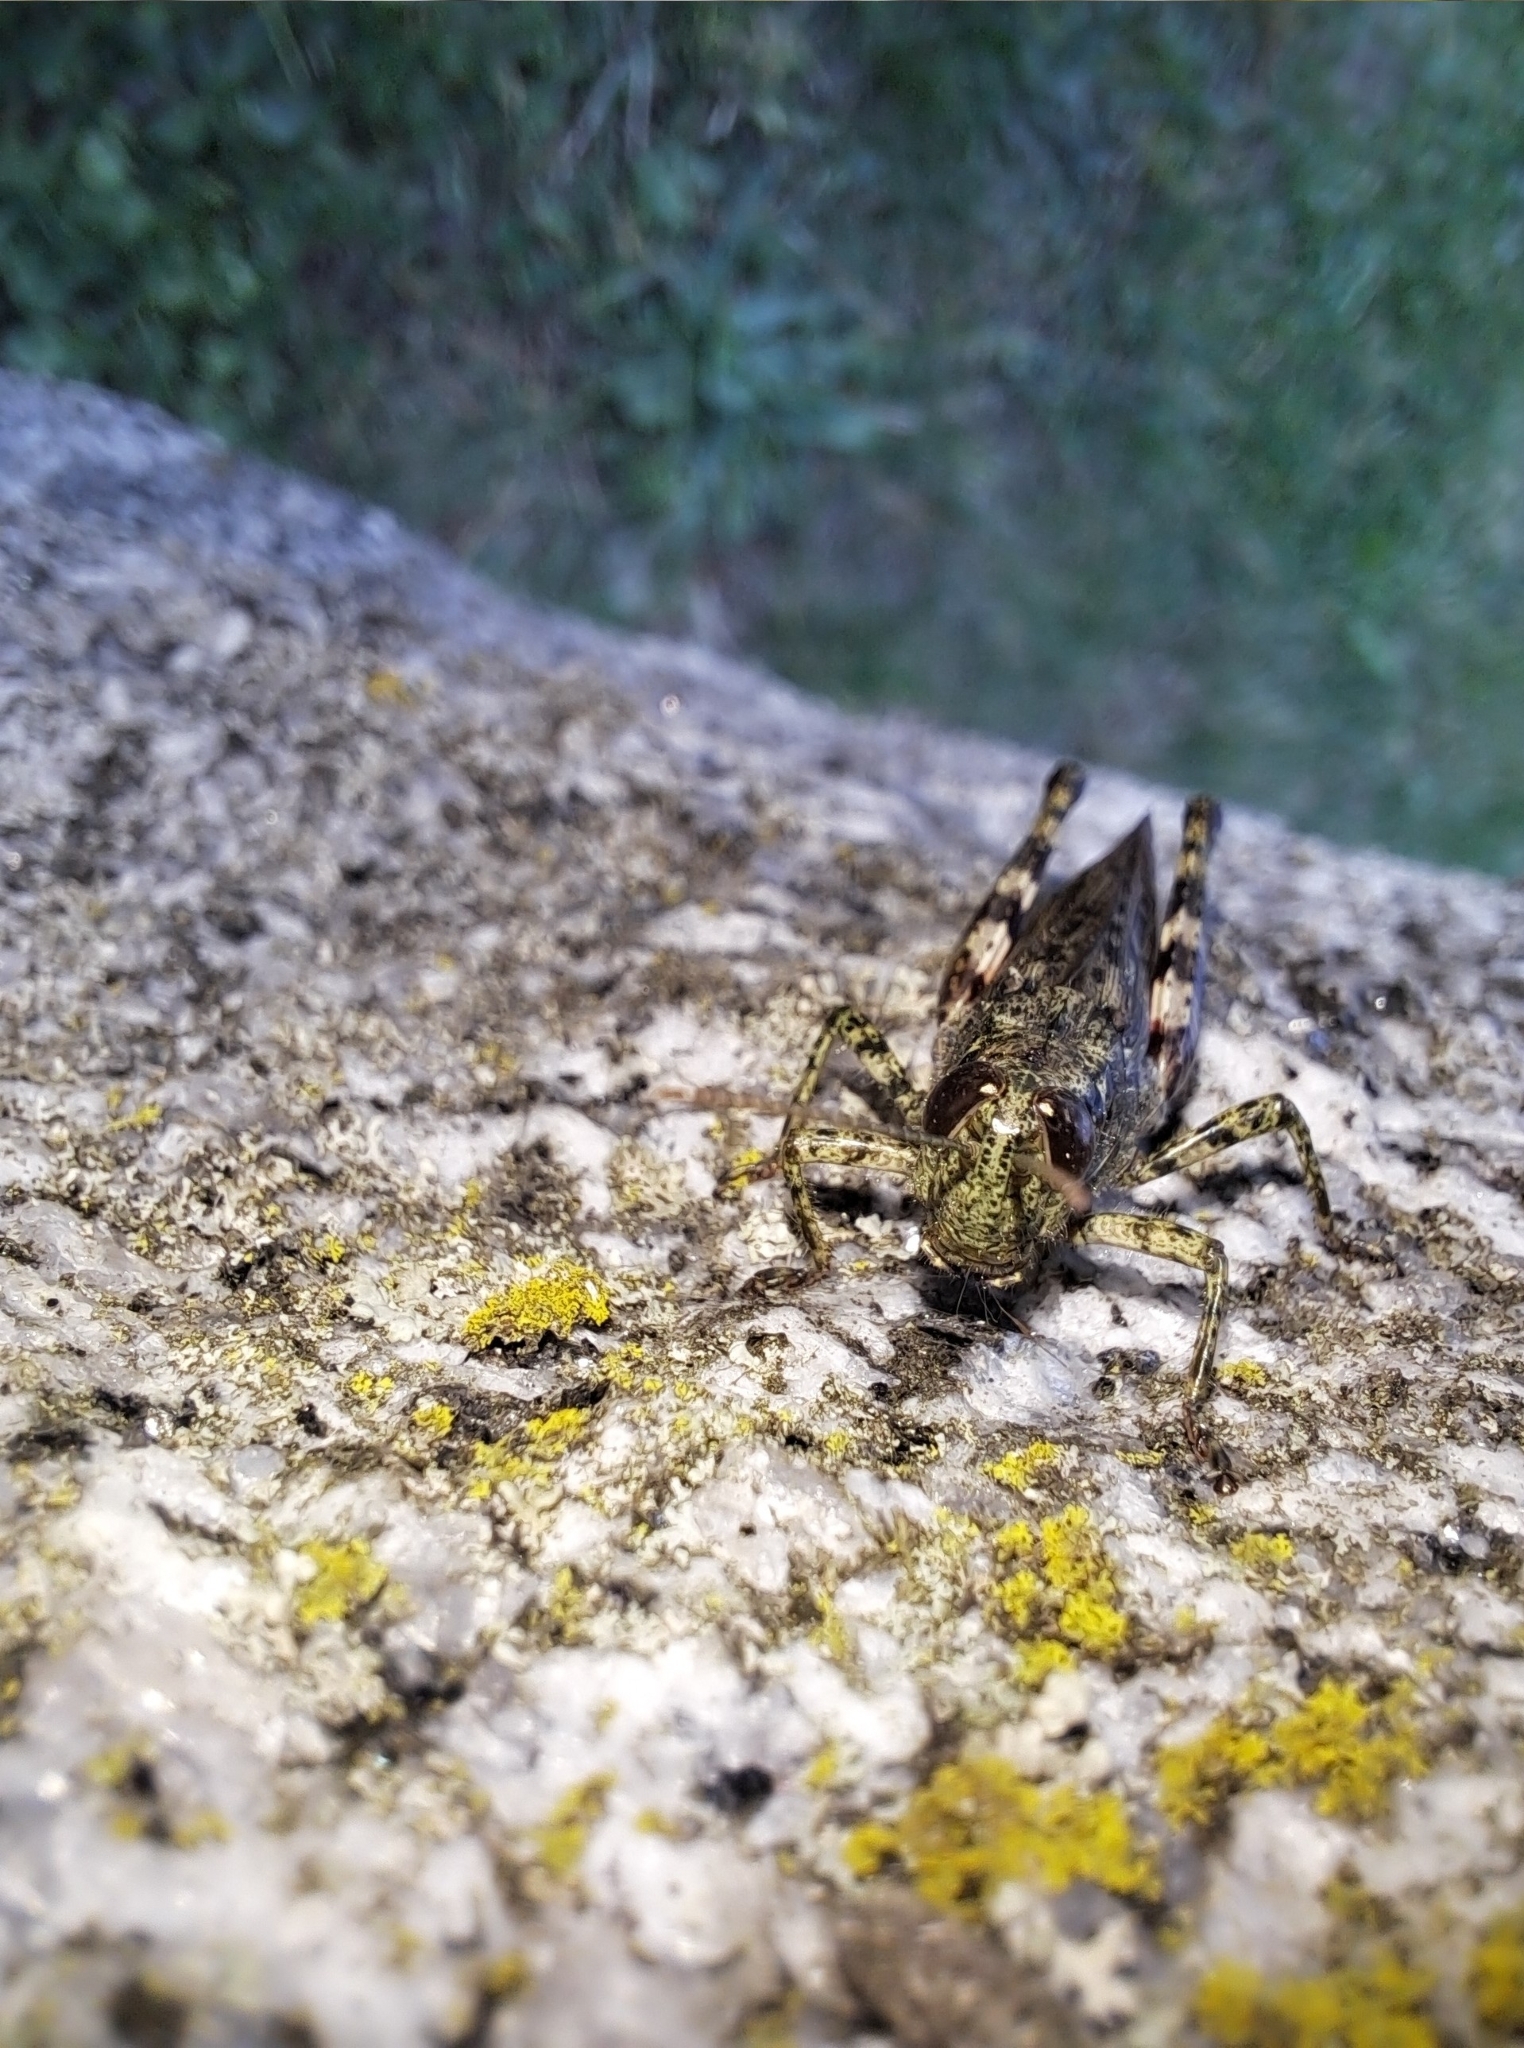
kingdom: Animalia
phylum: Arthropoda
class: Insecta
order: Orthoptera
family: Acrididae
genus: Melanoplus
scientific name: Melanoplus punctulatus
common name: Pine-tree spur-throat grasshopper
